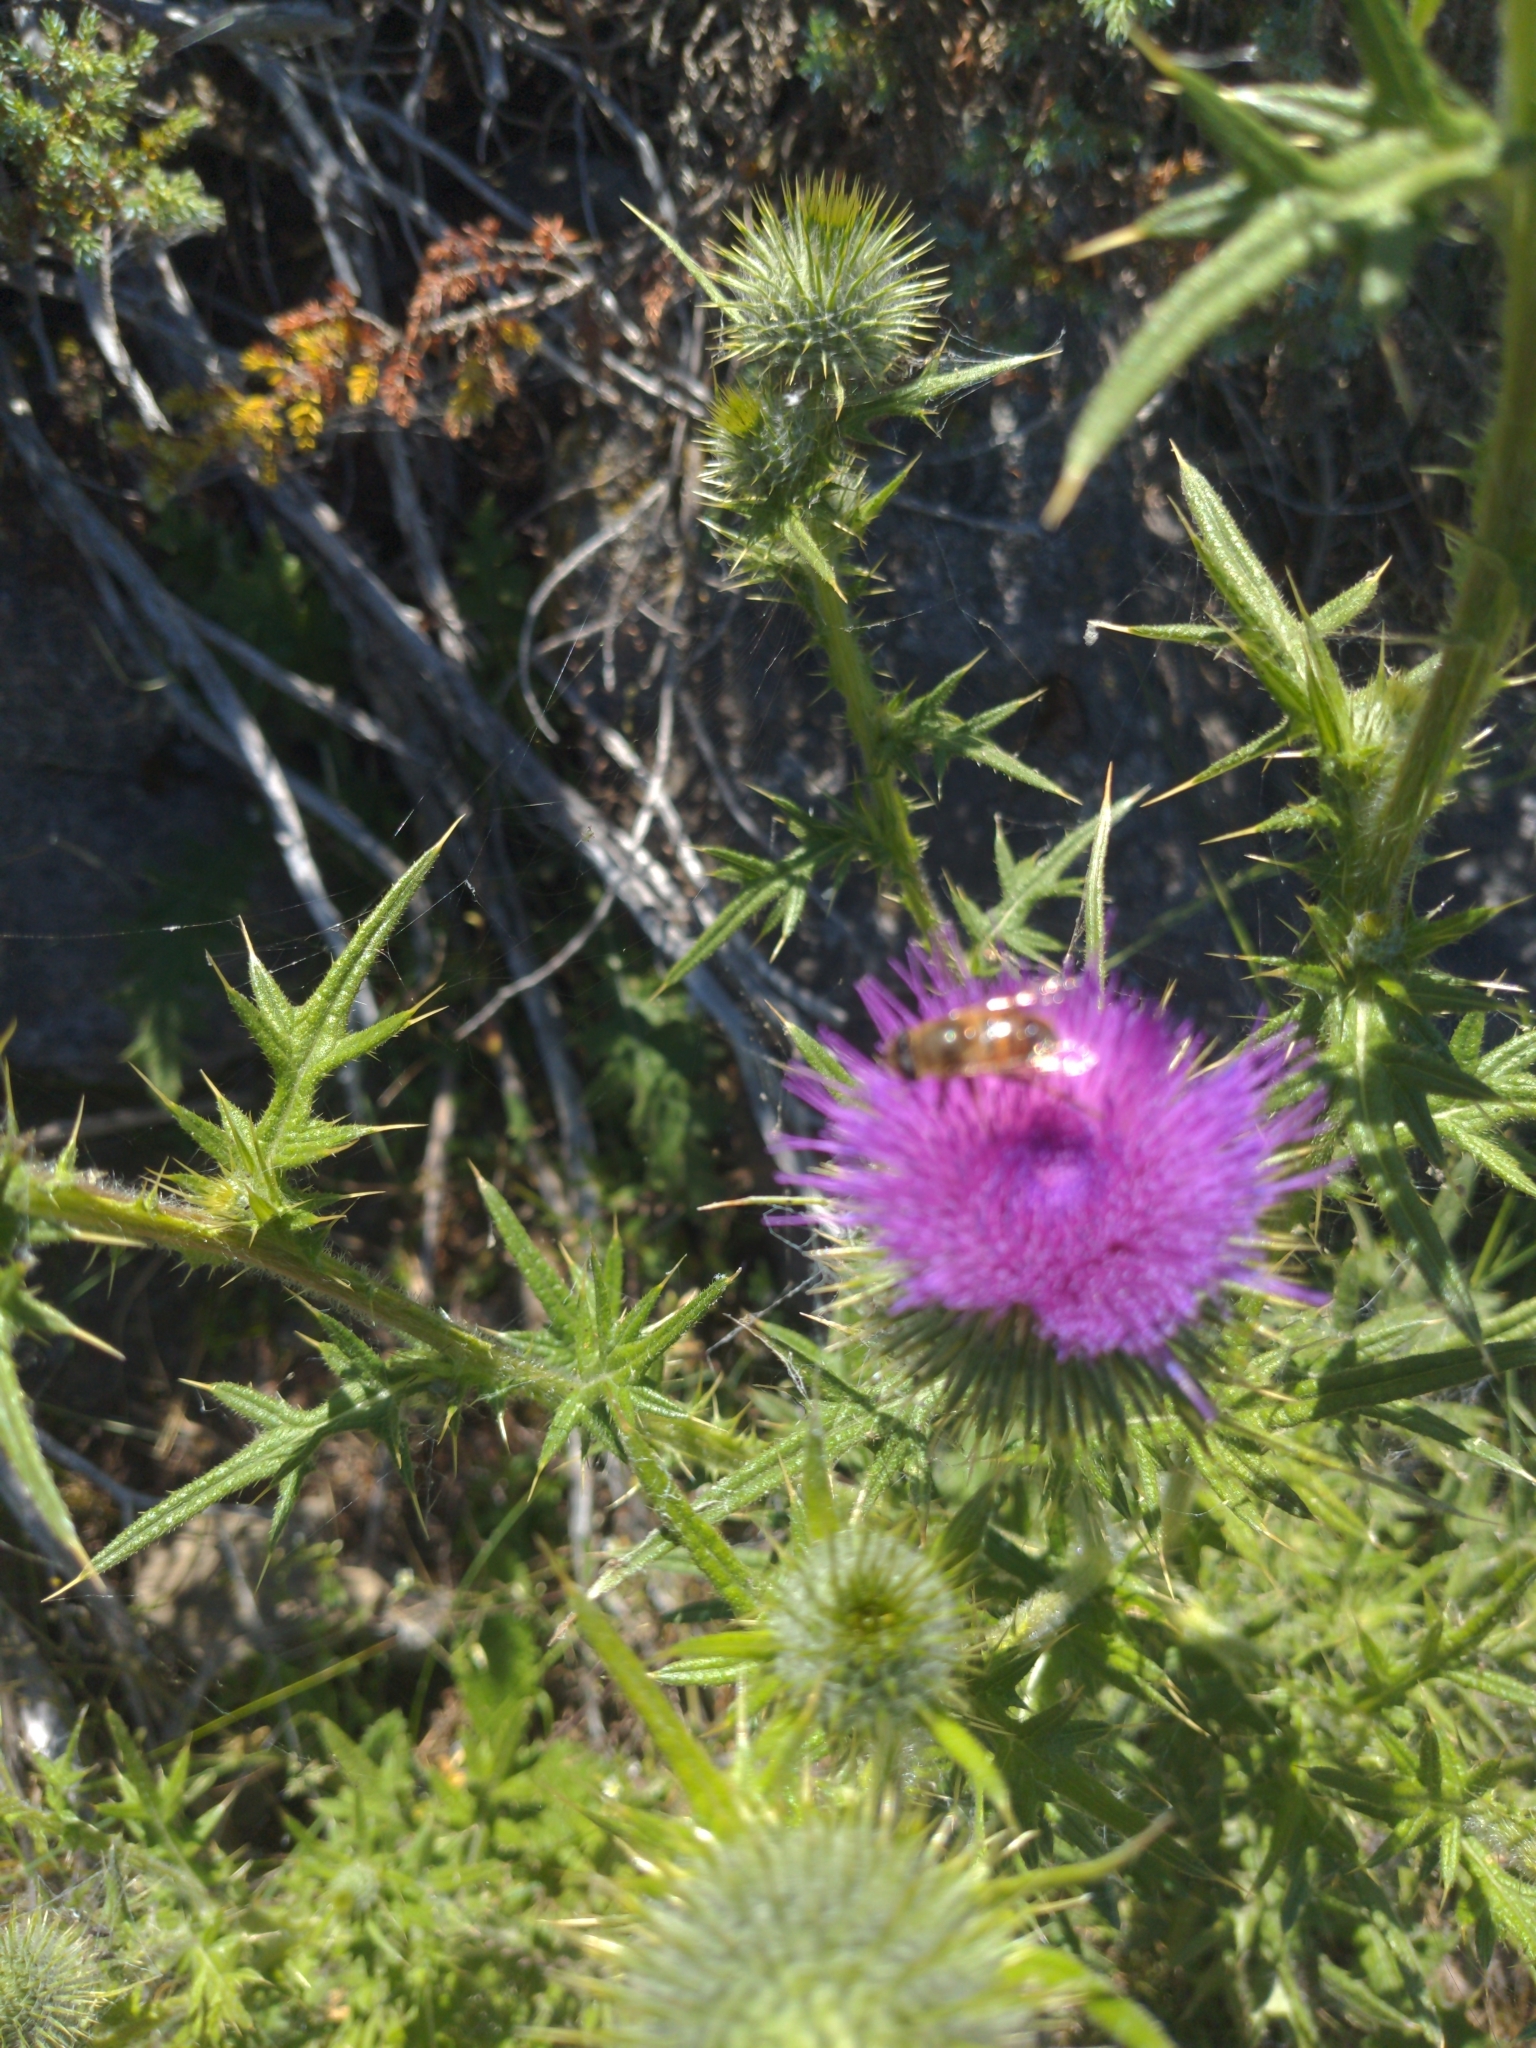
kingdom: Animalia
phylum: Arthropoda
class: Insecta
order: Diptera
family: Syrphidae
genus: Eristalis
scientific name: Eristalis tenax
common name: Drone fly
